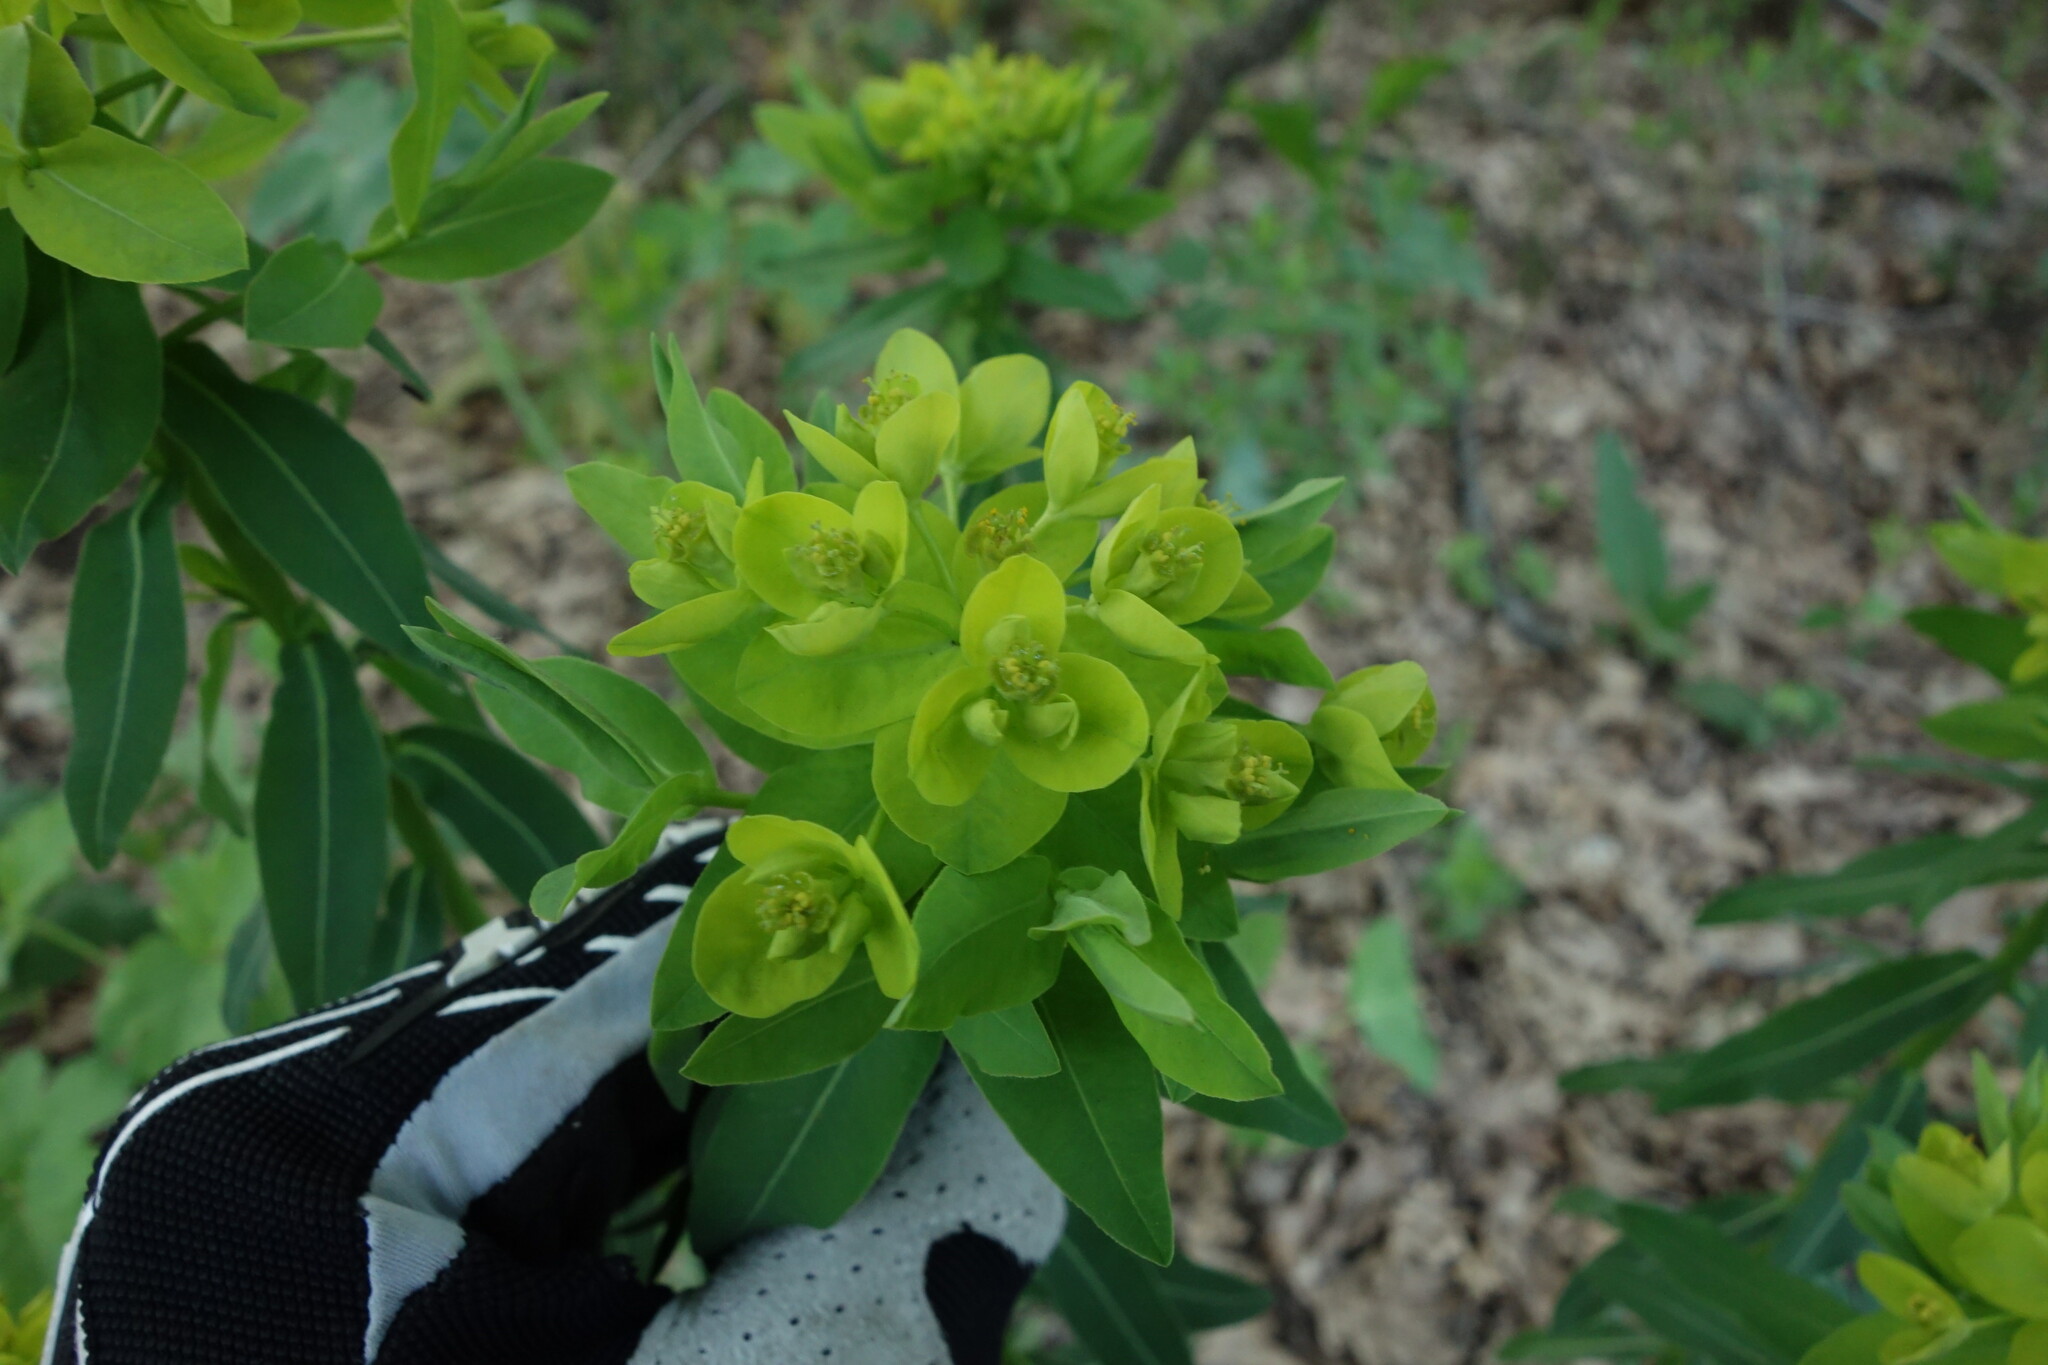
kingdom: Plantae
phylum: Tracheophyta
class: Magnoliopsida
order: Malpighiales
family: Euphorbiaceae
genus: Euphorbia
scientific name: Euphorbia semivillosa
